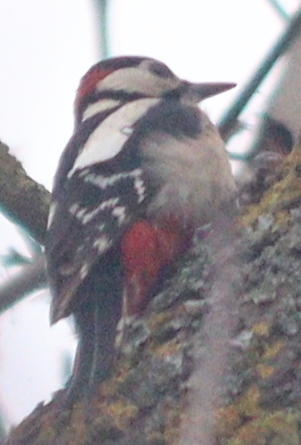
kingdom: Animalia
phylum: Chordata
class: Aves
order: Piciformes
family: Picidae
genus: Dendrocopos
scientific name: Dendrocopos major
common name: Great spotted woodpecker
